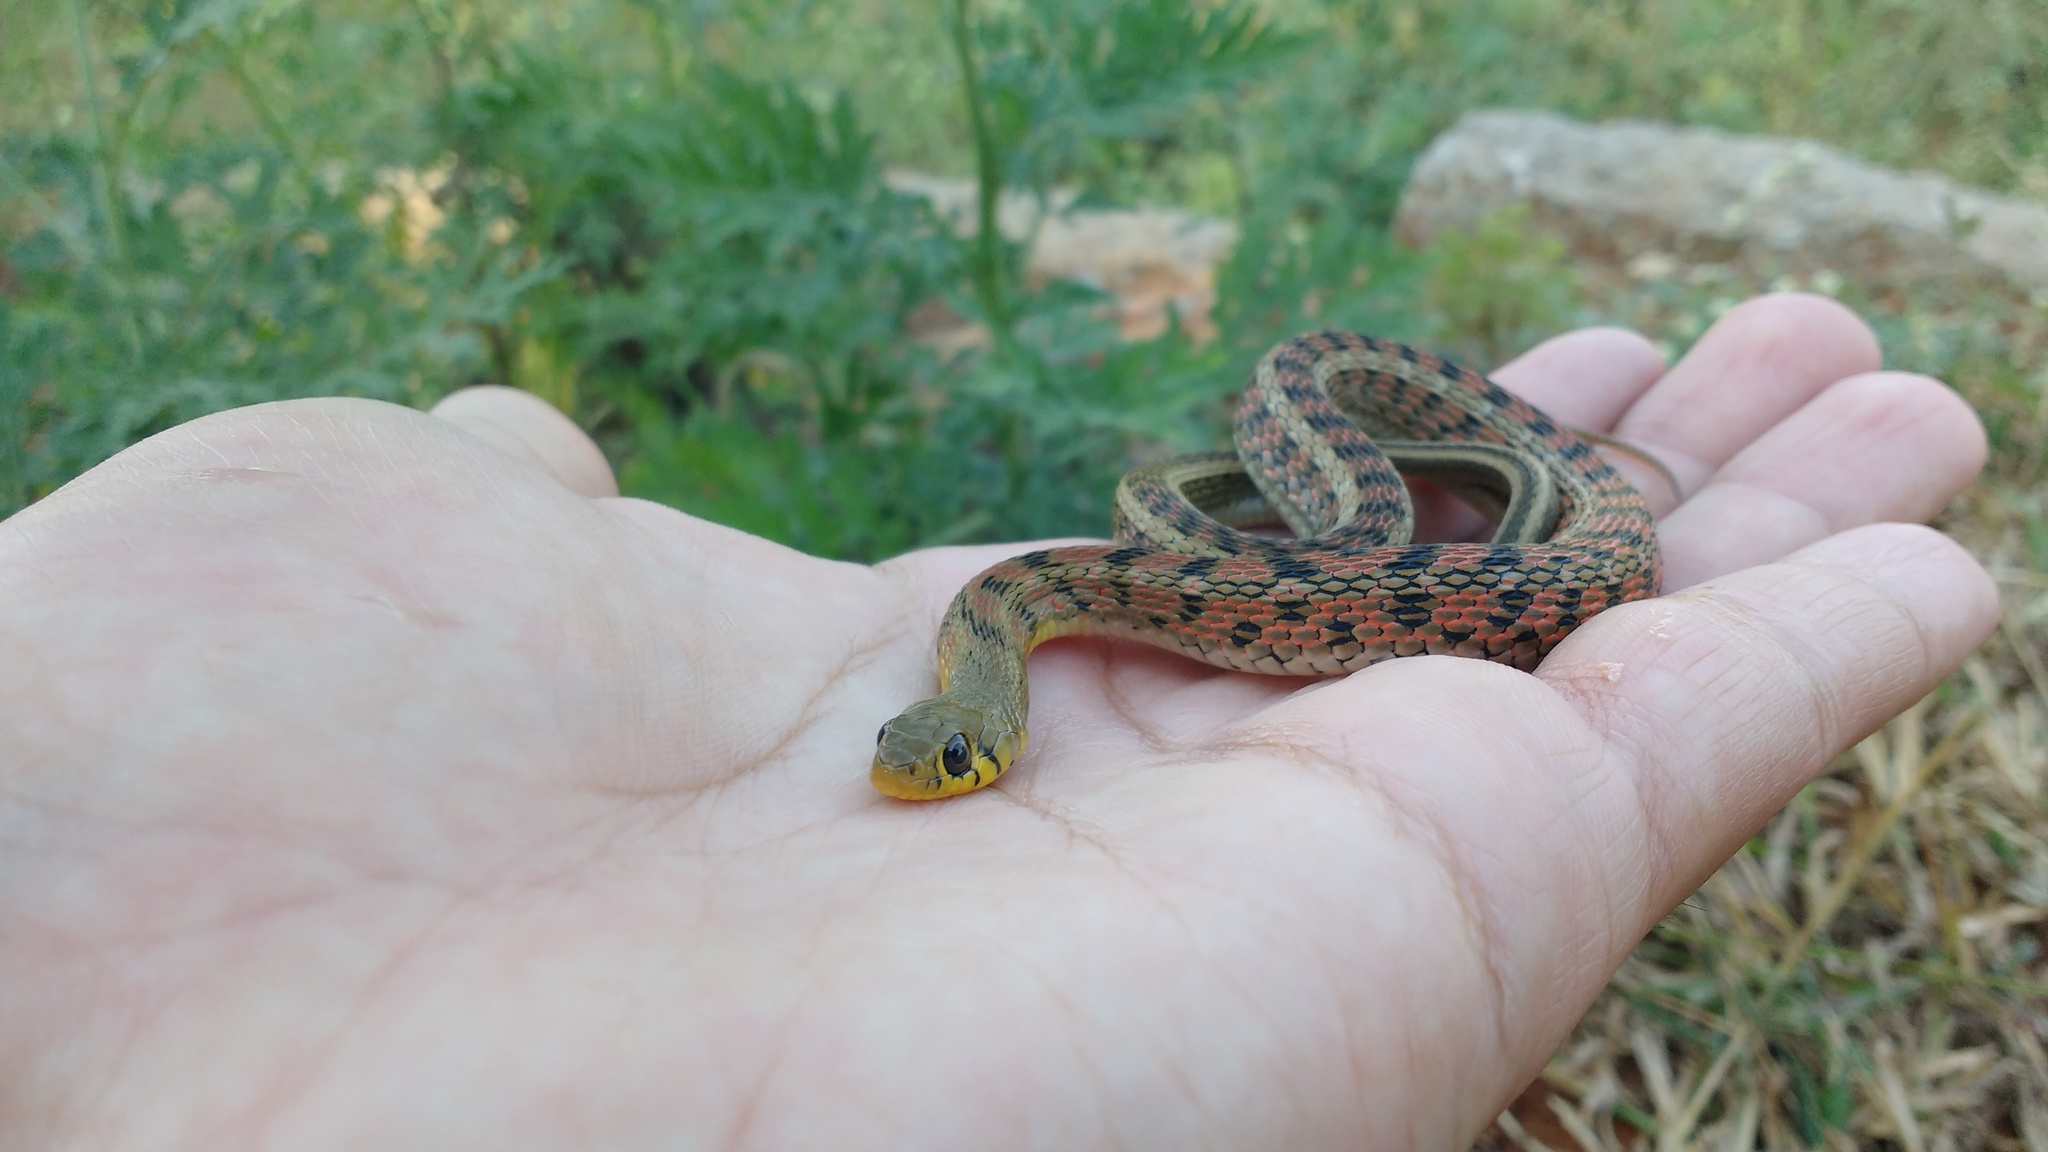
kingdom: Animalia
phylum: Chordata
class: Squamata
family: Colubridae
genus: Amphiesma
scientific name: Amphiesma stolatum
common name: Buff striped keelback
